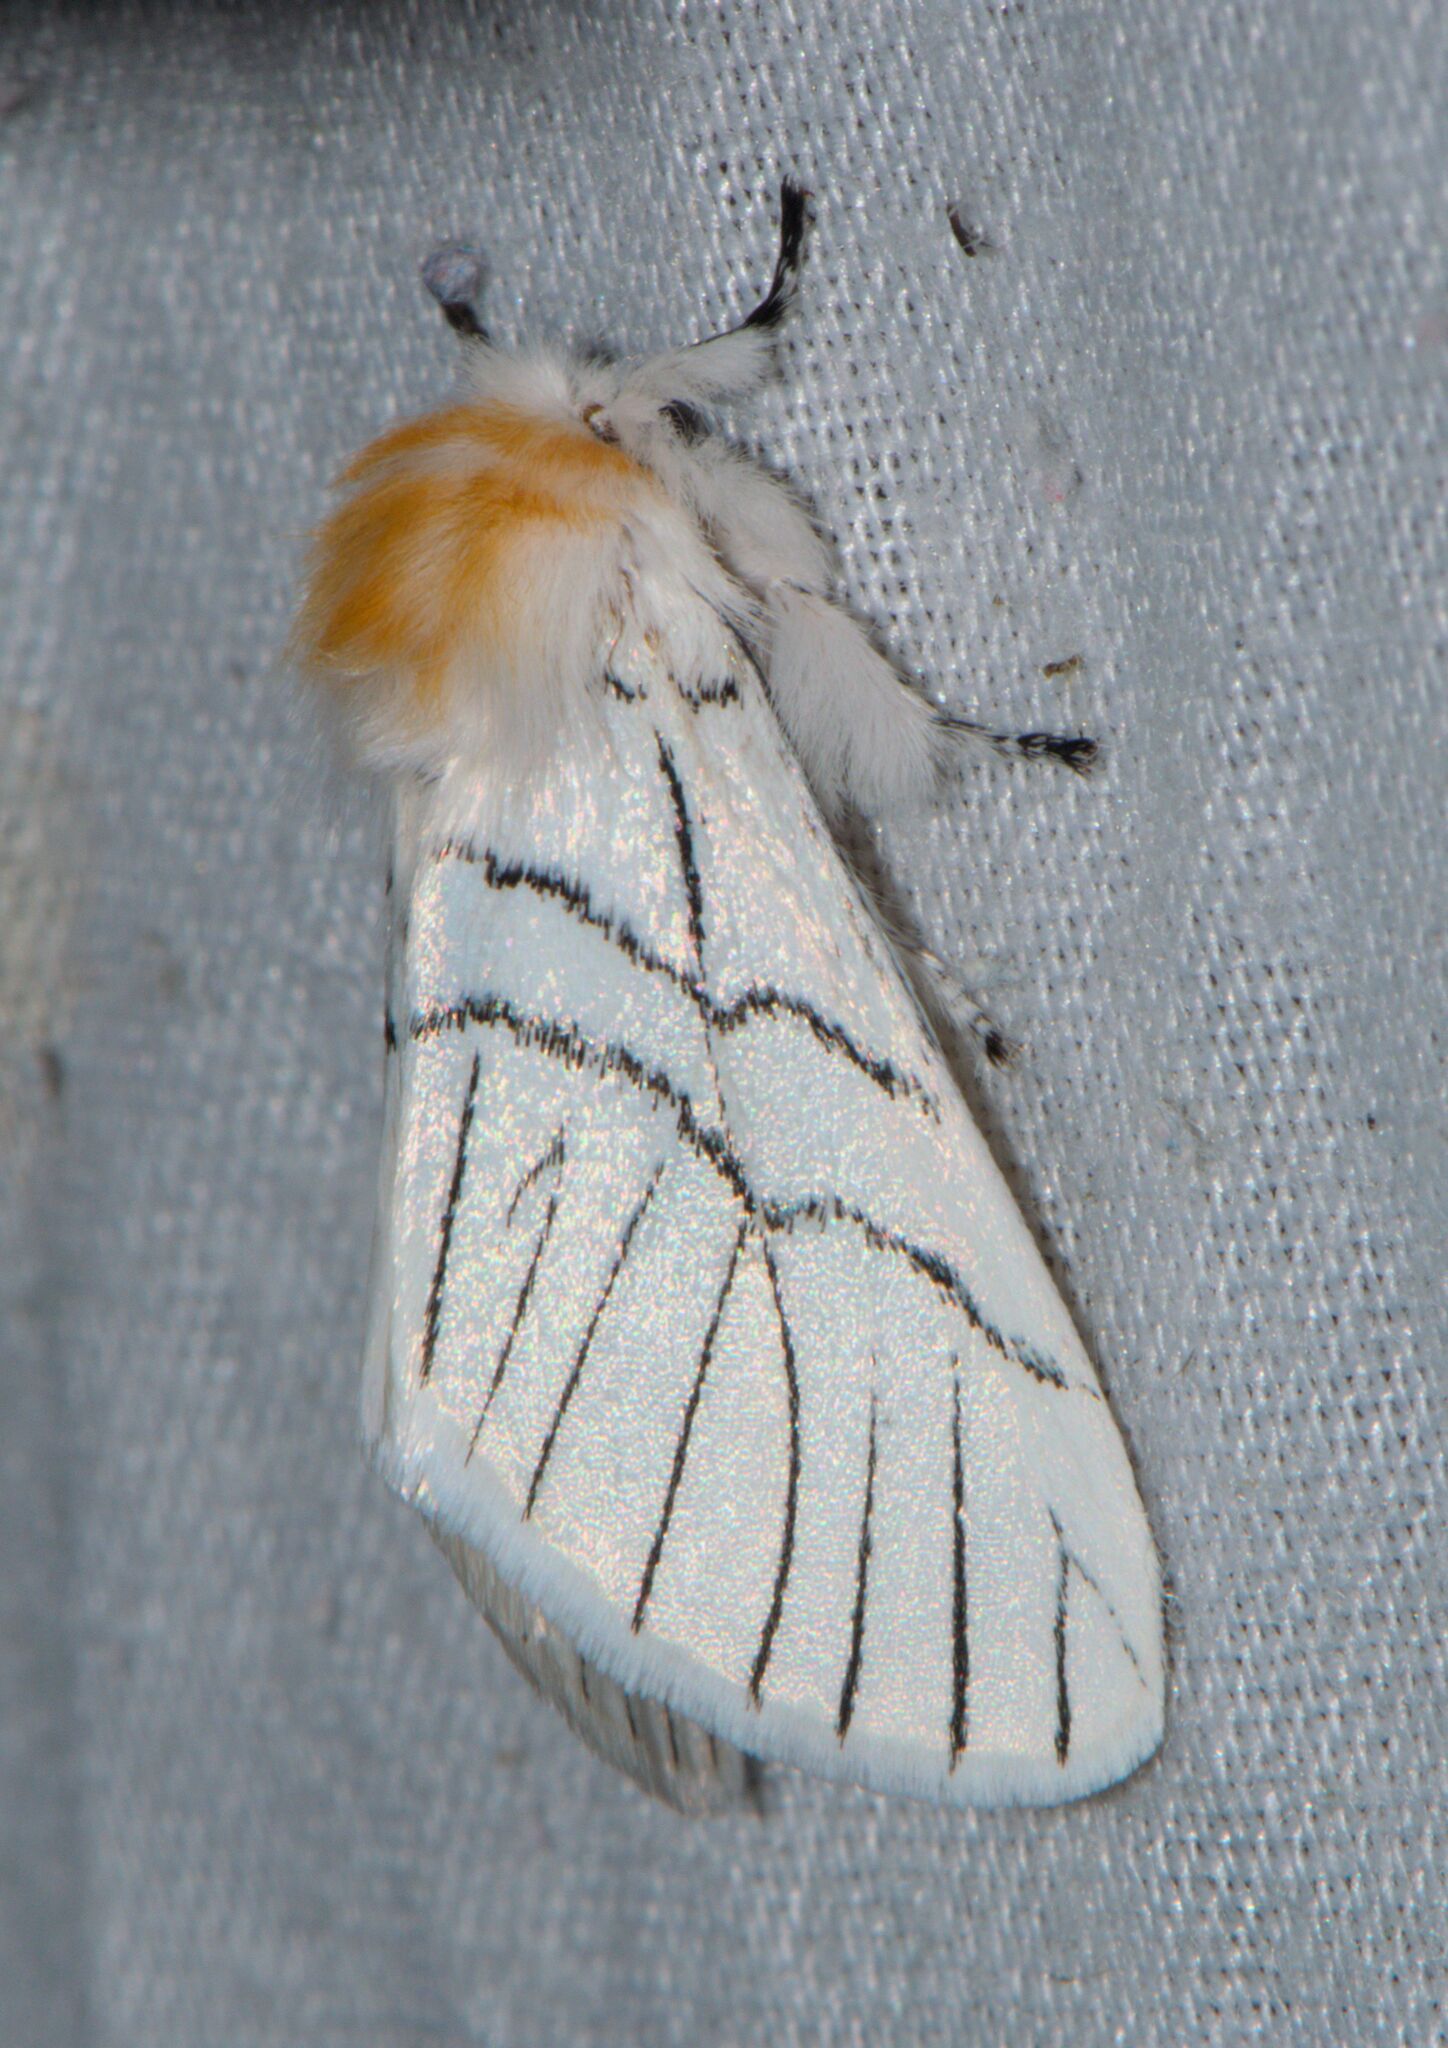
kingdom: Animalia
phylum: Arthropoda
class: Insecta
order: Lepidoptera
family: Notodontidae
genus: Oligoclona
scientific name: Oligoclona chrysolopha
